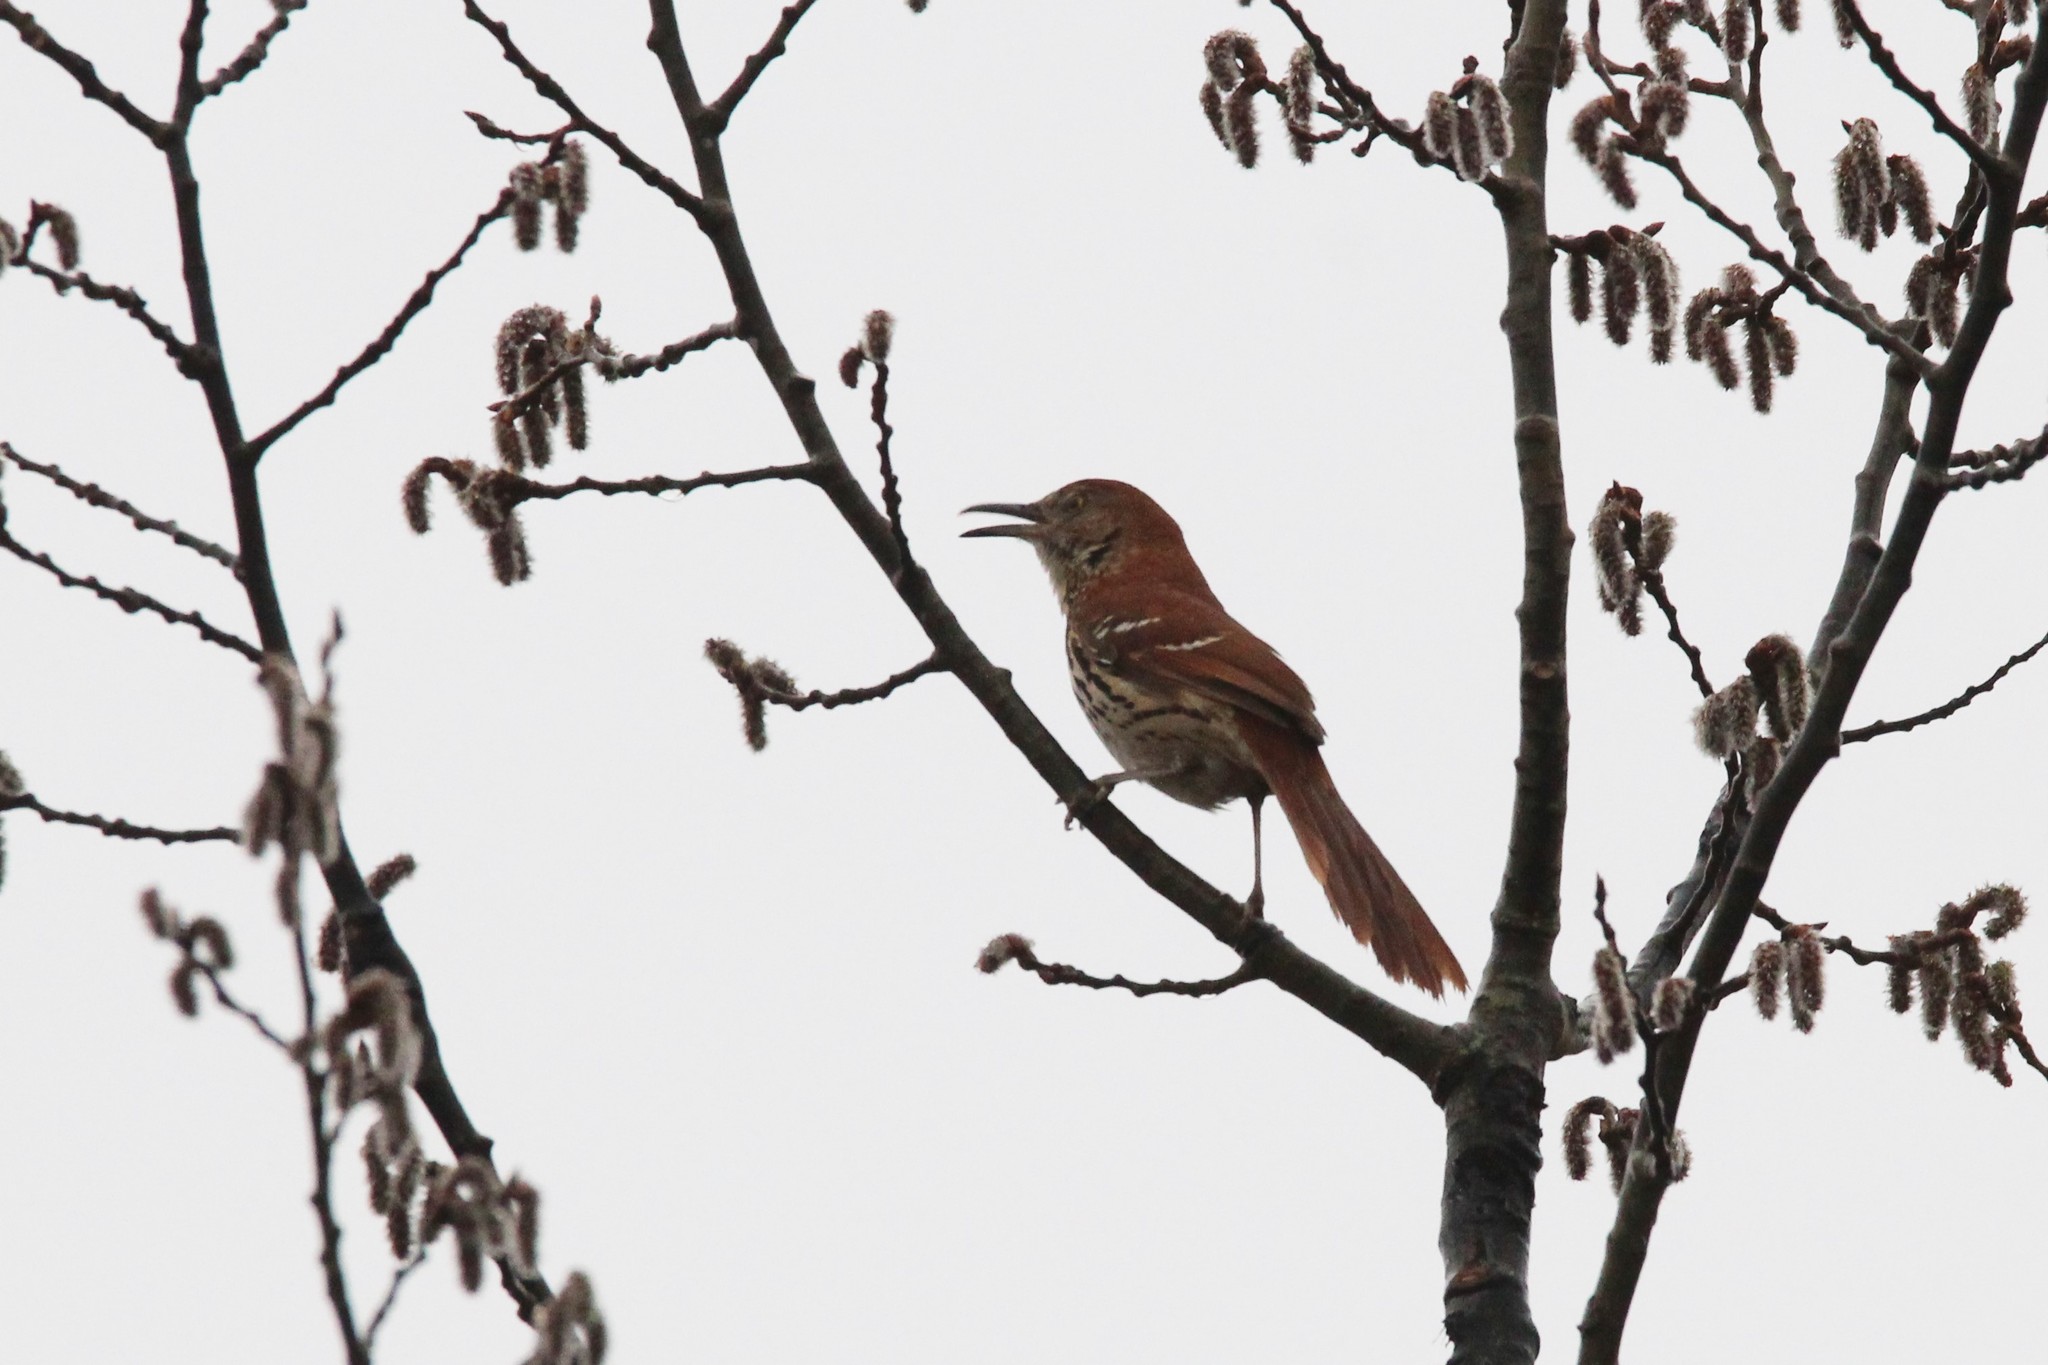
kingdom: Animalia
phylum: Chordata
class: Aves
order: Passeriformes
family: Mimidae
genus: Toxostoma
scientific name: Toxostoma rufum
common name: Brown thrasher
